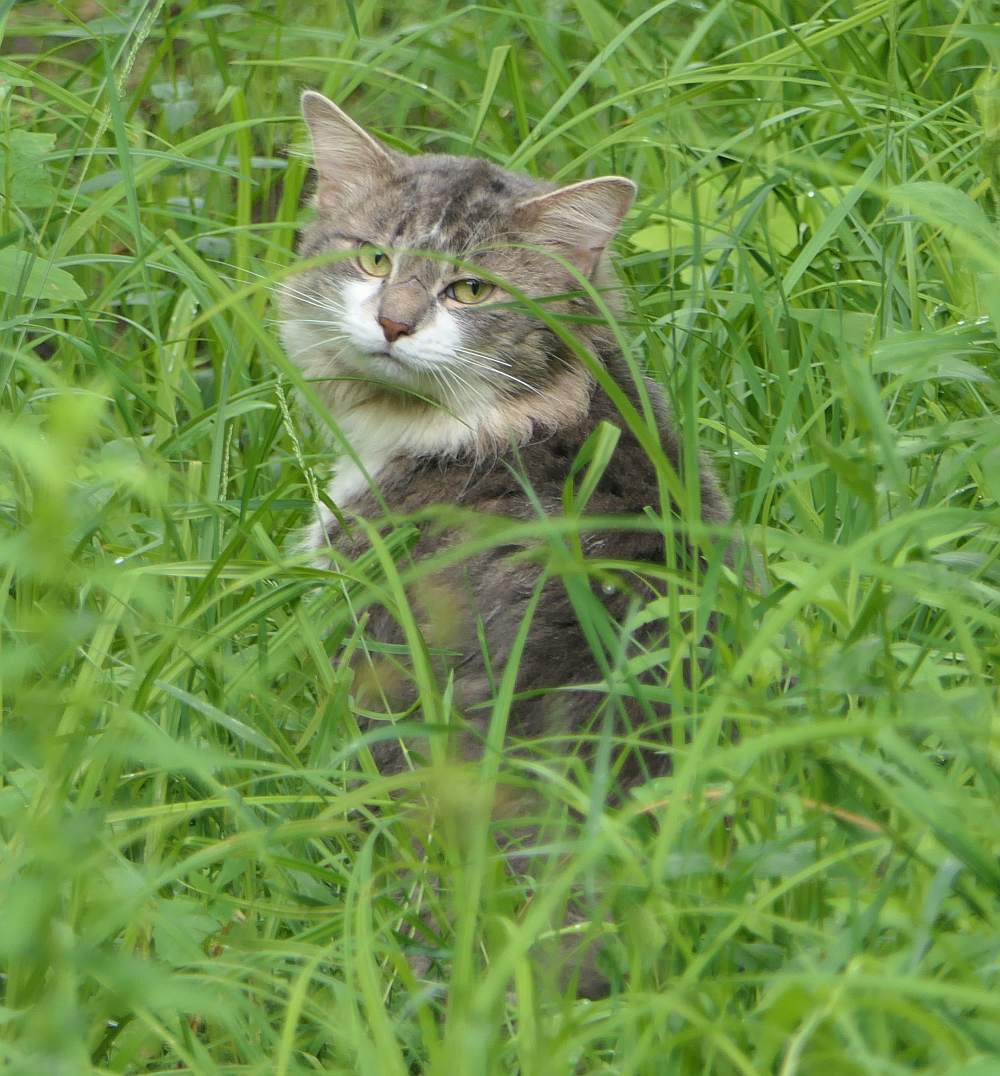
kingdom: Animalia
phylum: Chordata
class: Mammalia
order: Carnivora
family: Felidae
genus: Felis
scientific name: Felis catus
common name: Domestic cat
